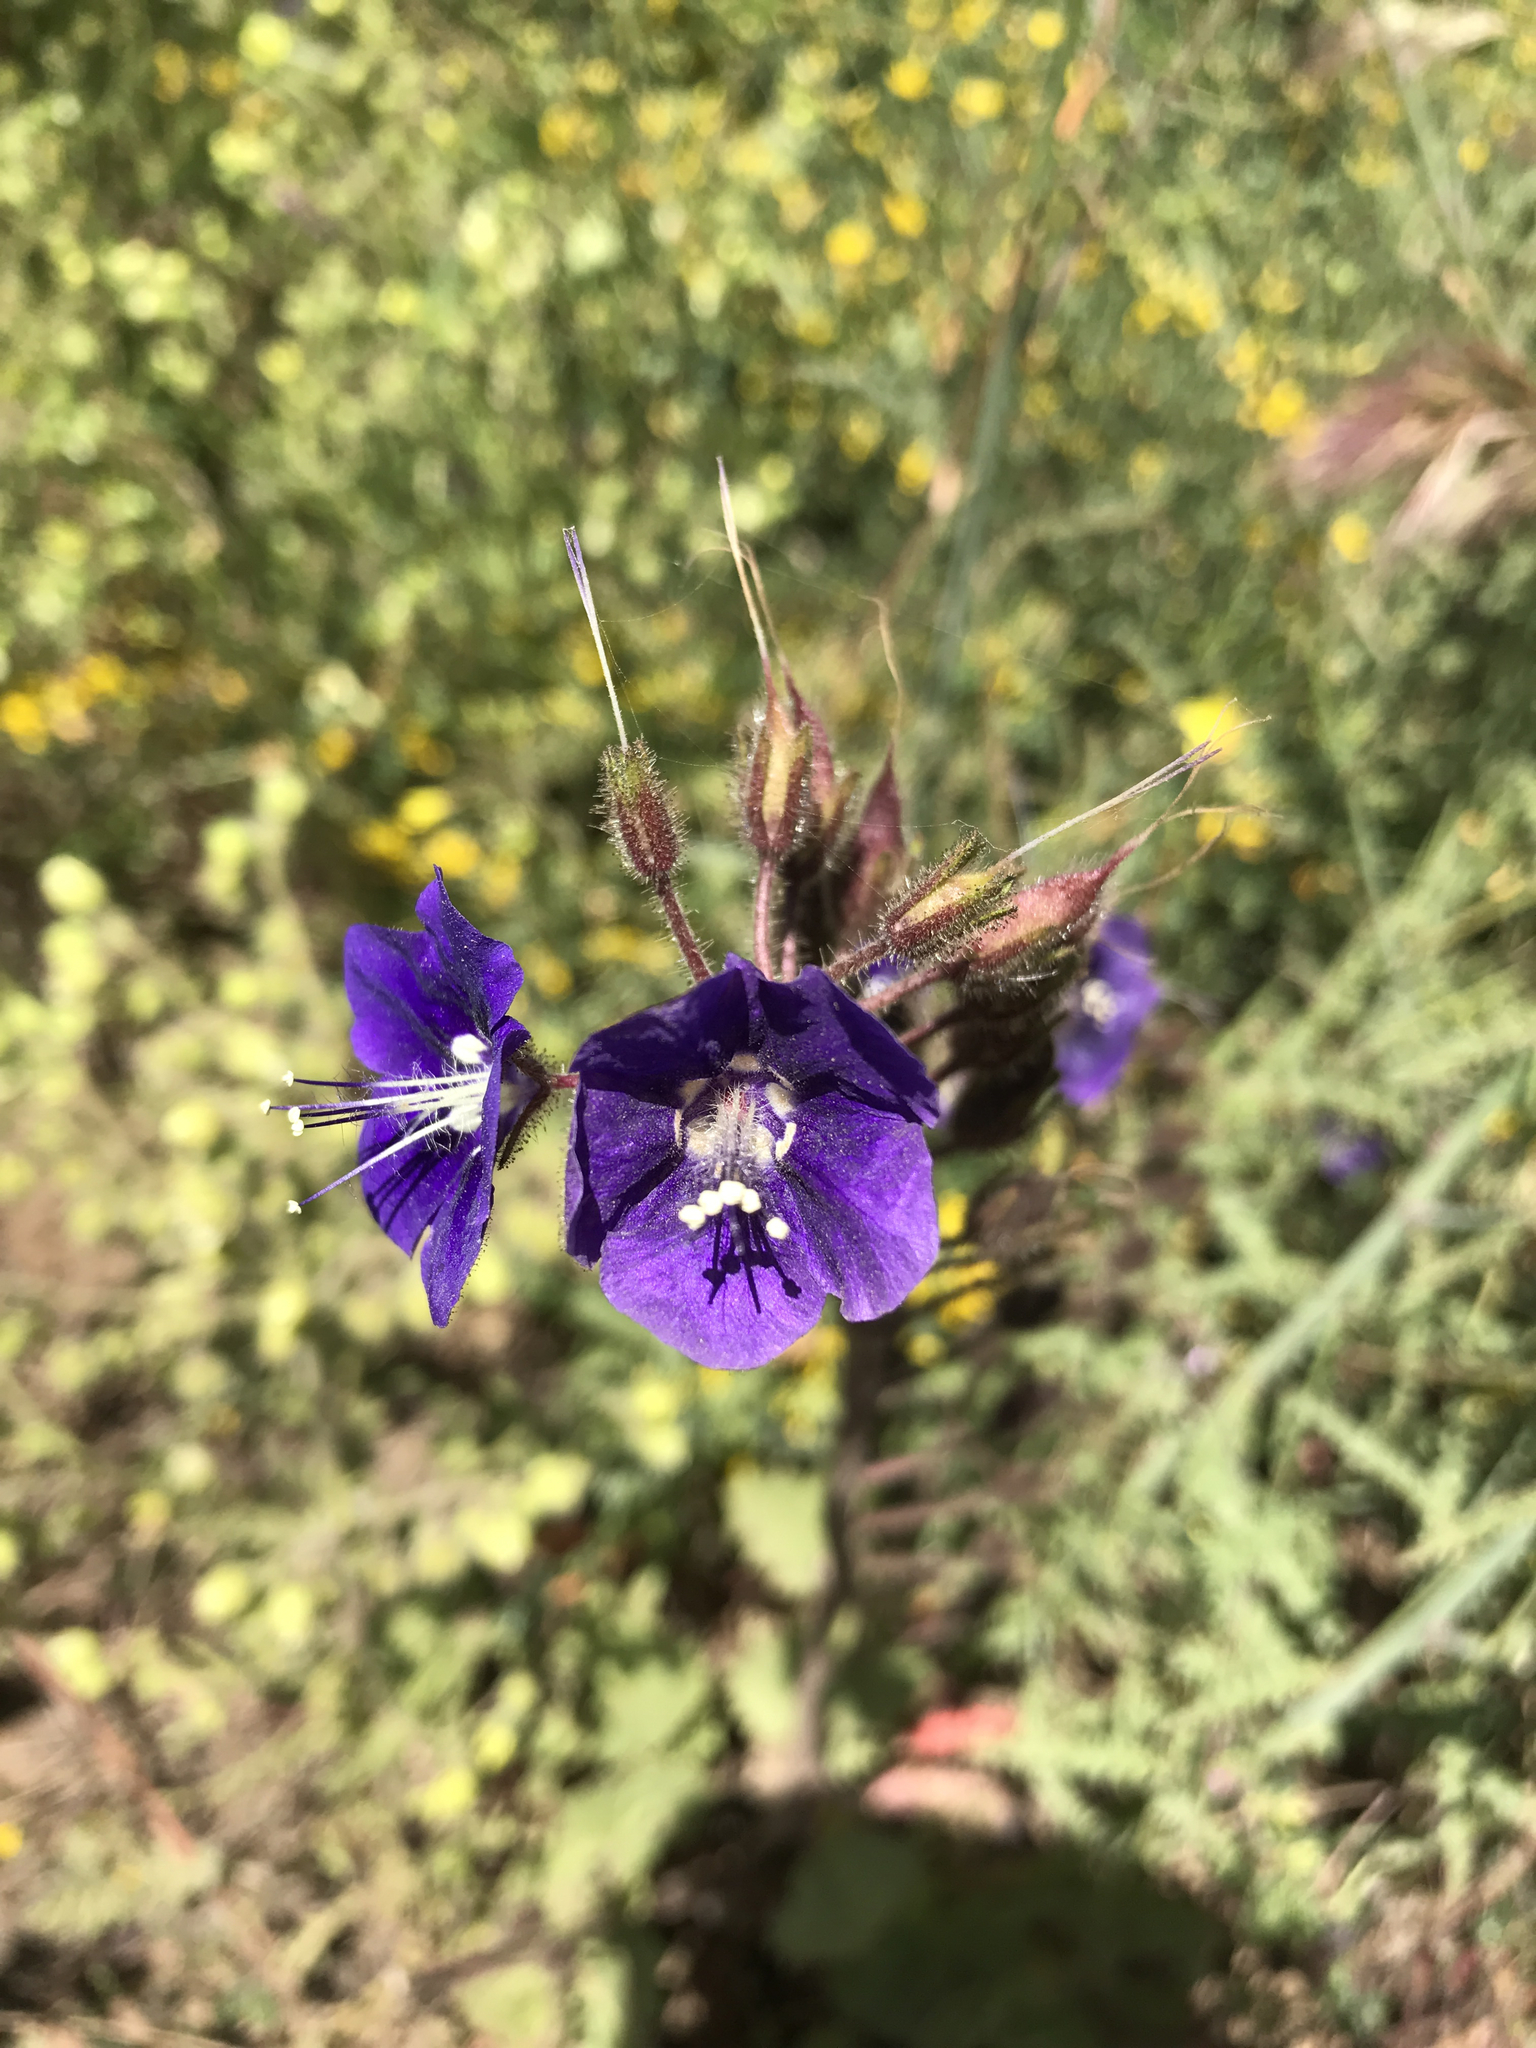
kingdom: Plantae
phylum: Tracheophyta
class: Magnoliopsida
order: Boraginales
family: Hydrophyllaceae
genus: Phacelia
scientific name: Phacelia parryi
